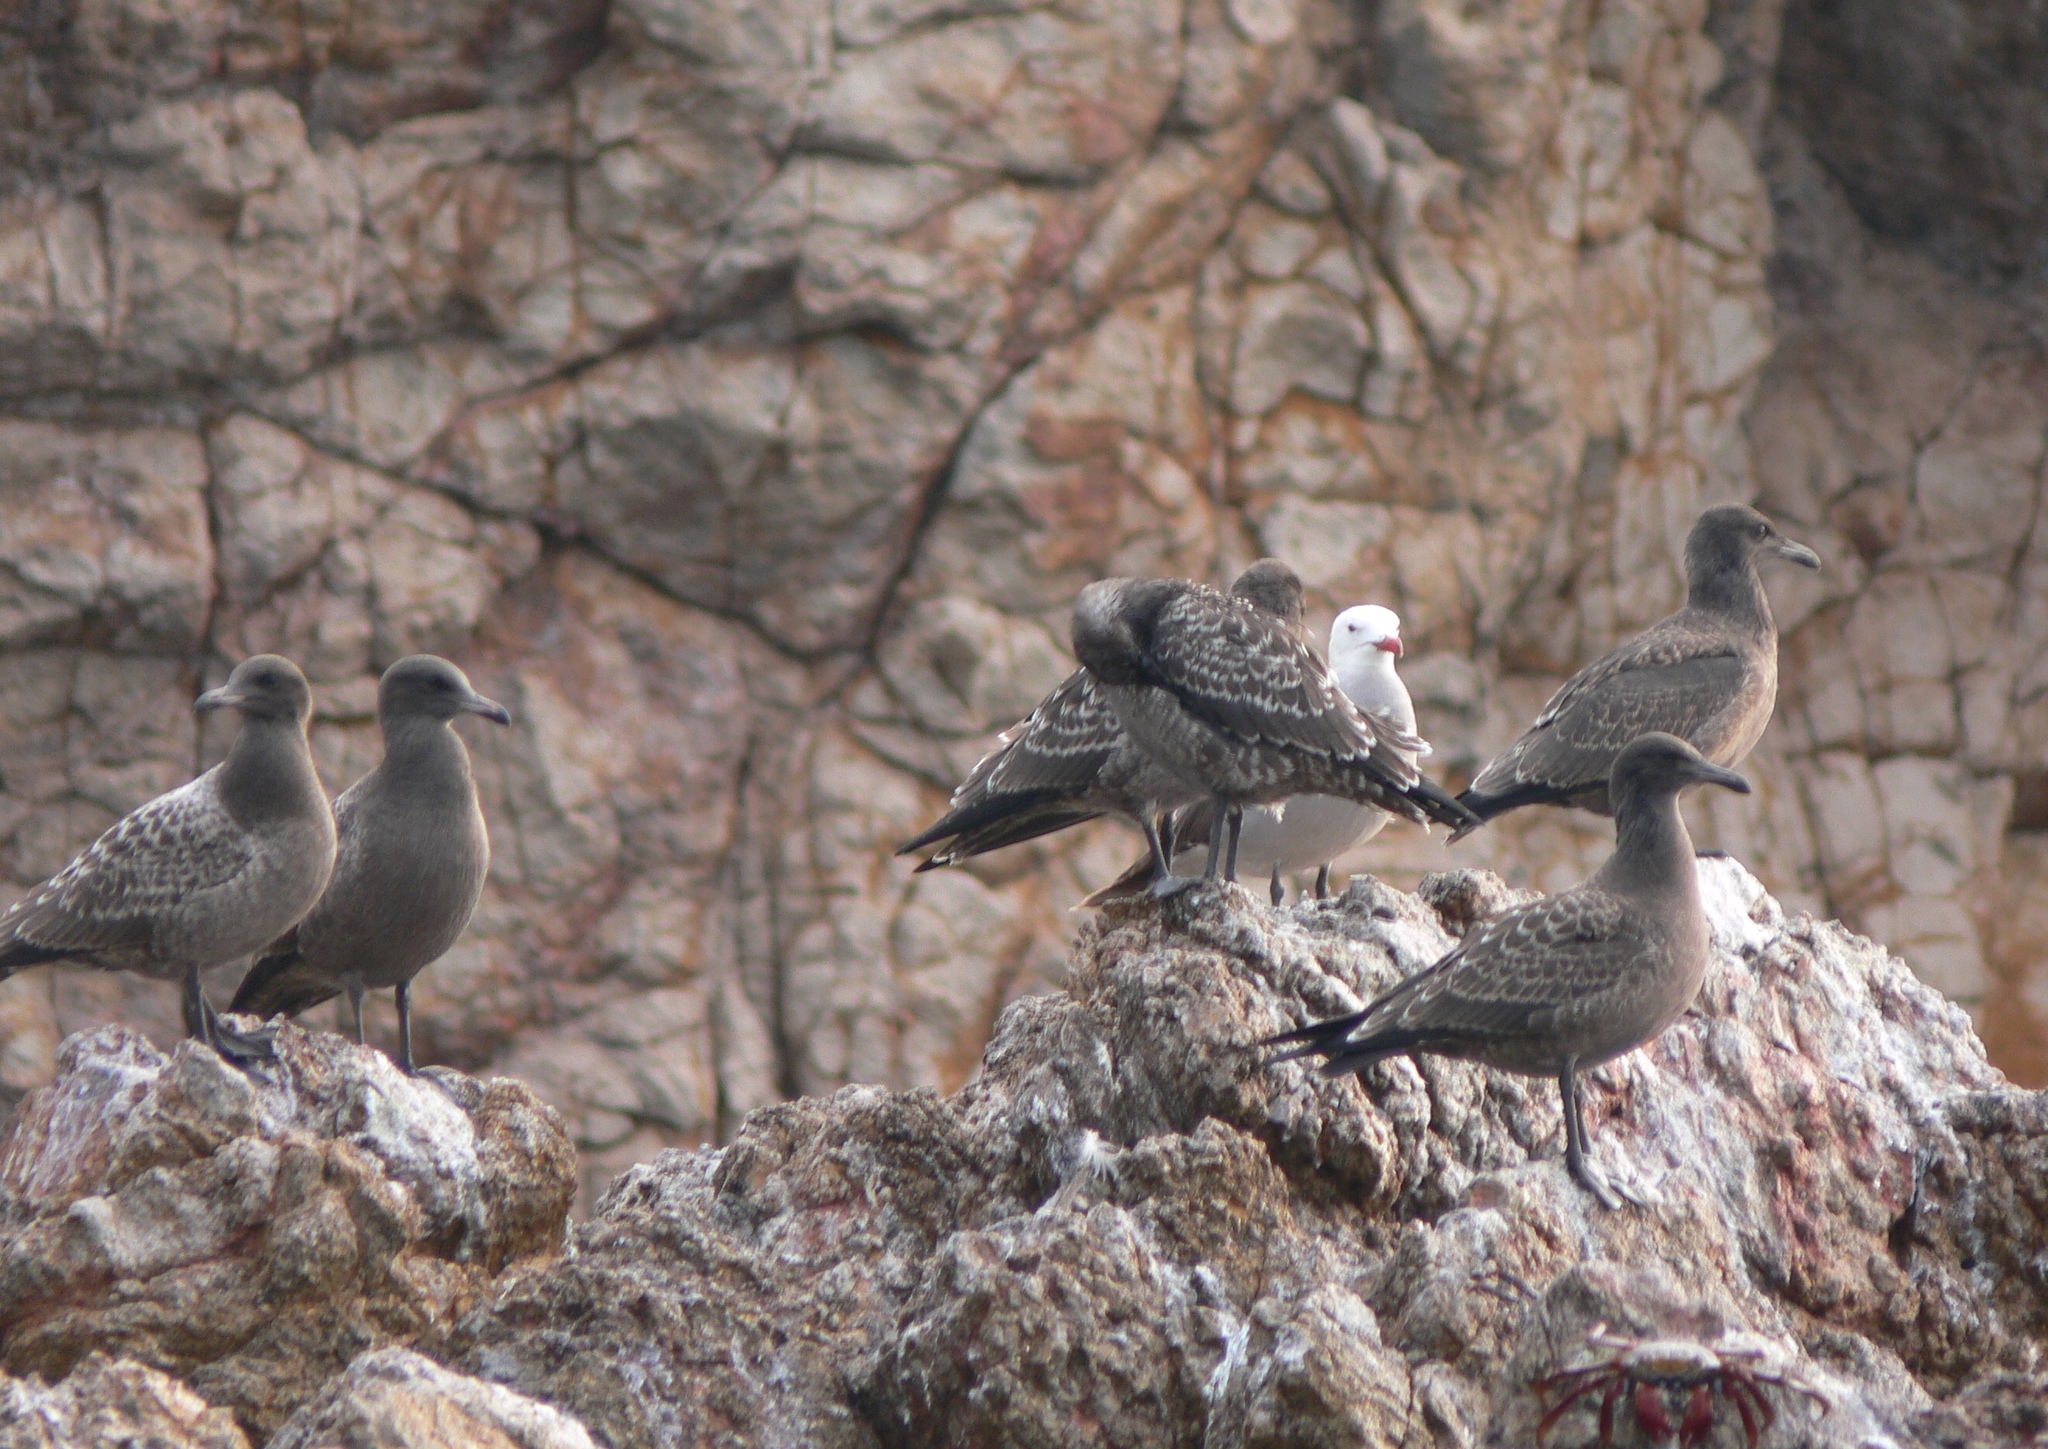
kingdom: Animalia
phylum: Chordata
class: Aves
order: Charadriiformes
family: Laridae
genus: Larus
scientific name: Larus heermanni
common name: Heermann's gull
